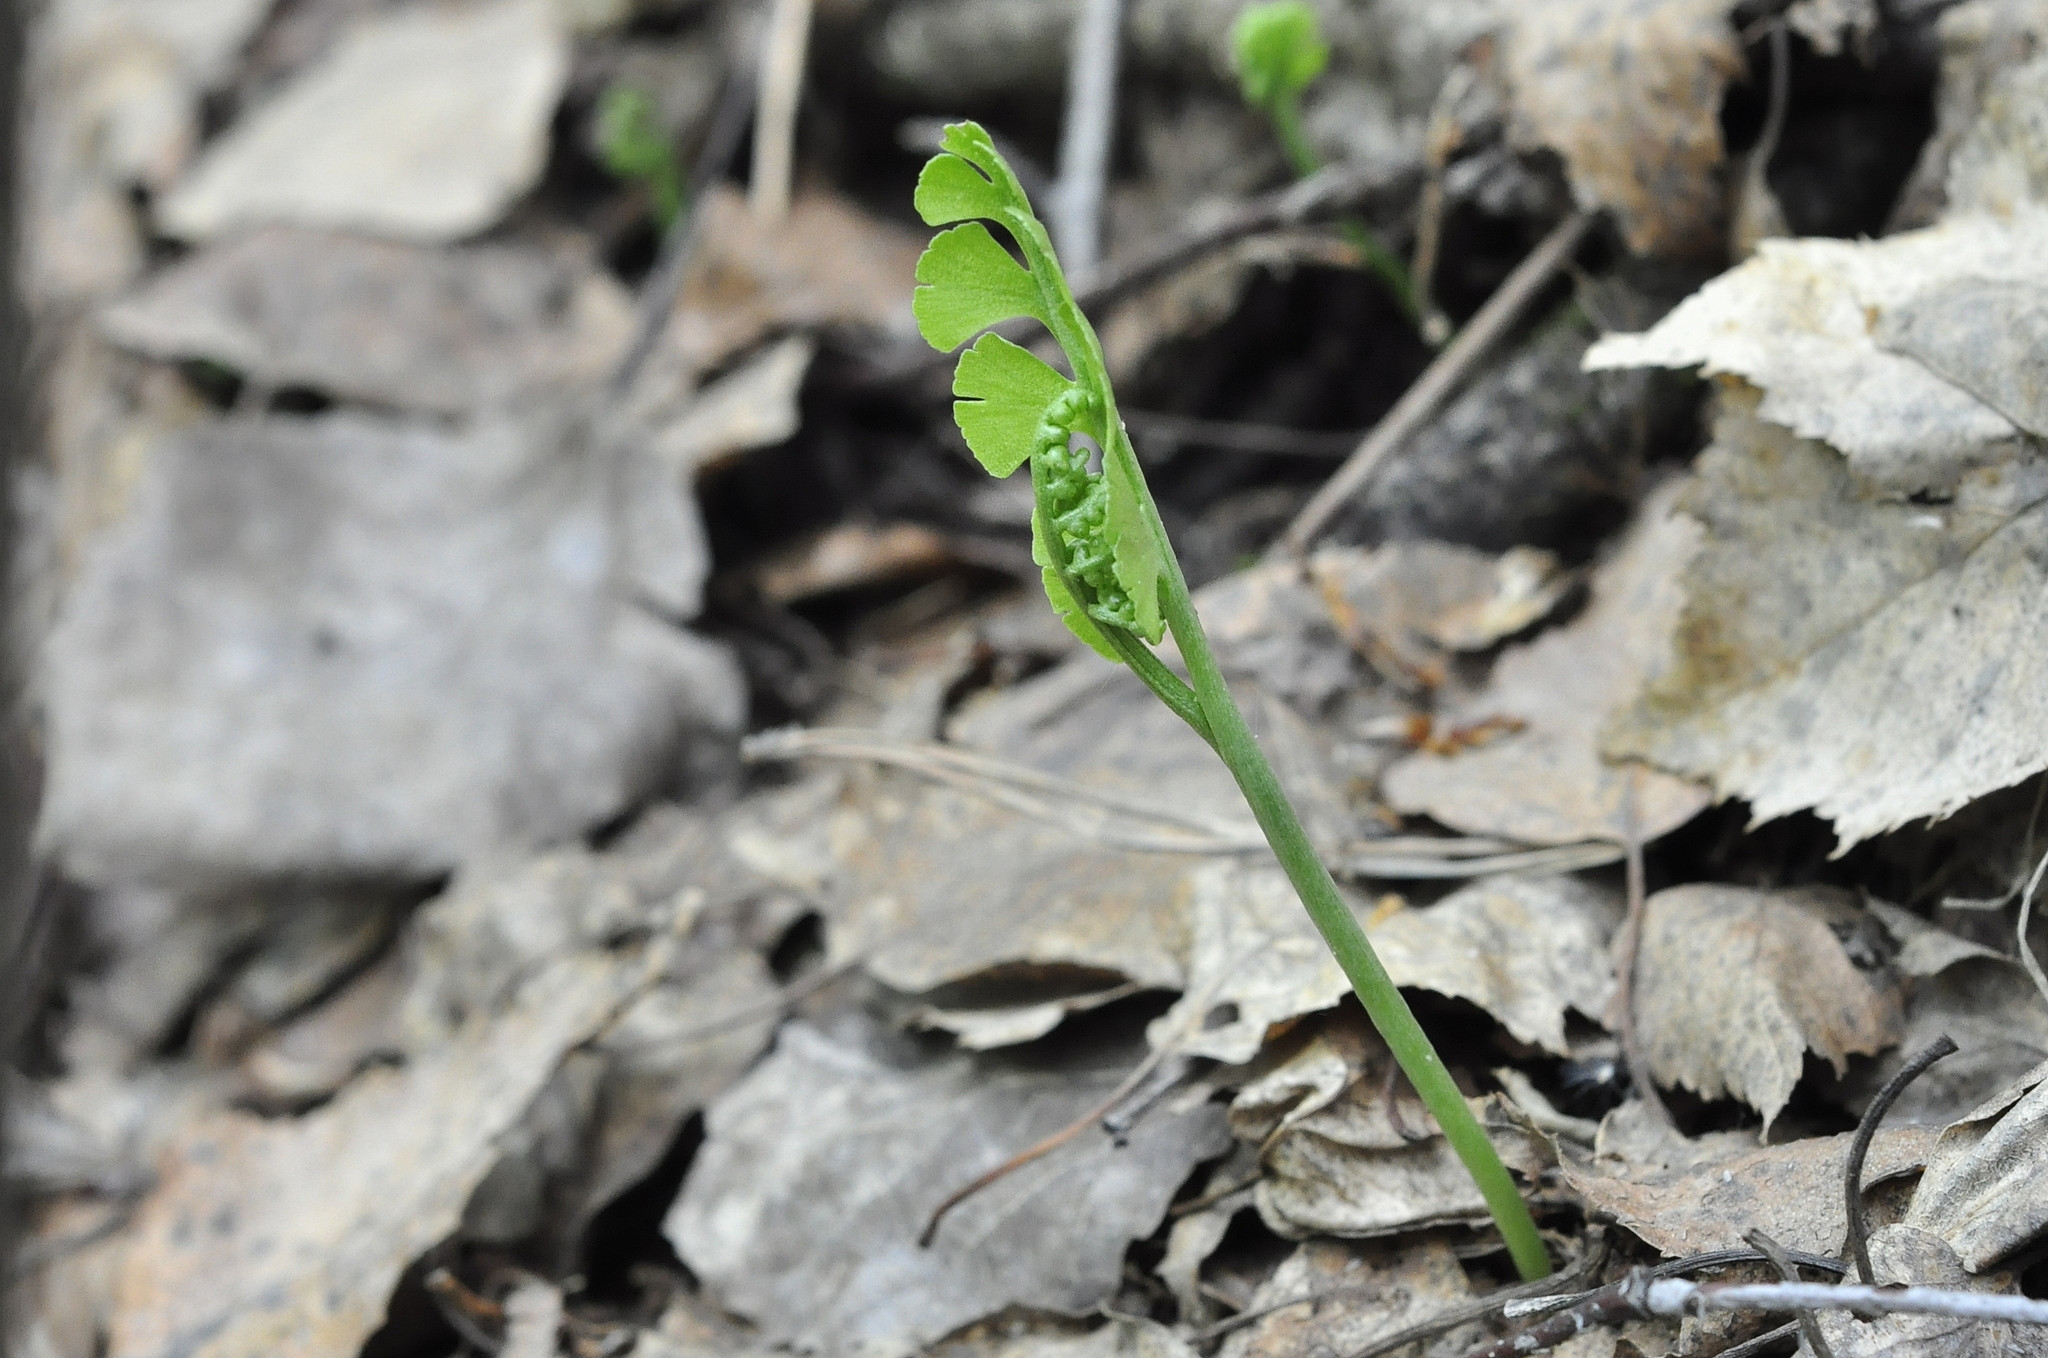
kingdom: Plantae
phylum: Tracheophyta
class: Polypodiopsida
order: Ophioglossales
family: Ophioglossaceae
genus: Botrychium
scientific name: Botrychium lunaria
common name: Moonwort
